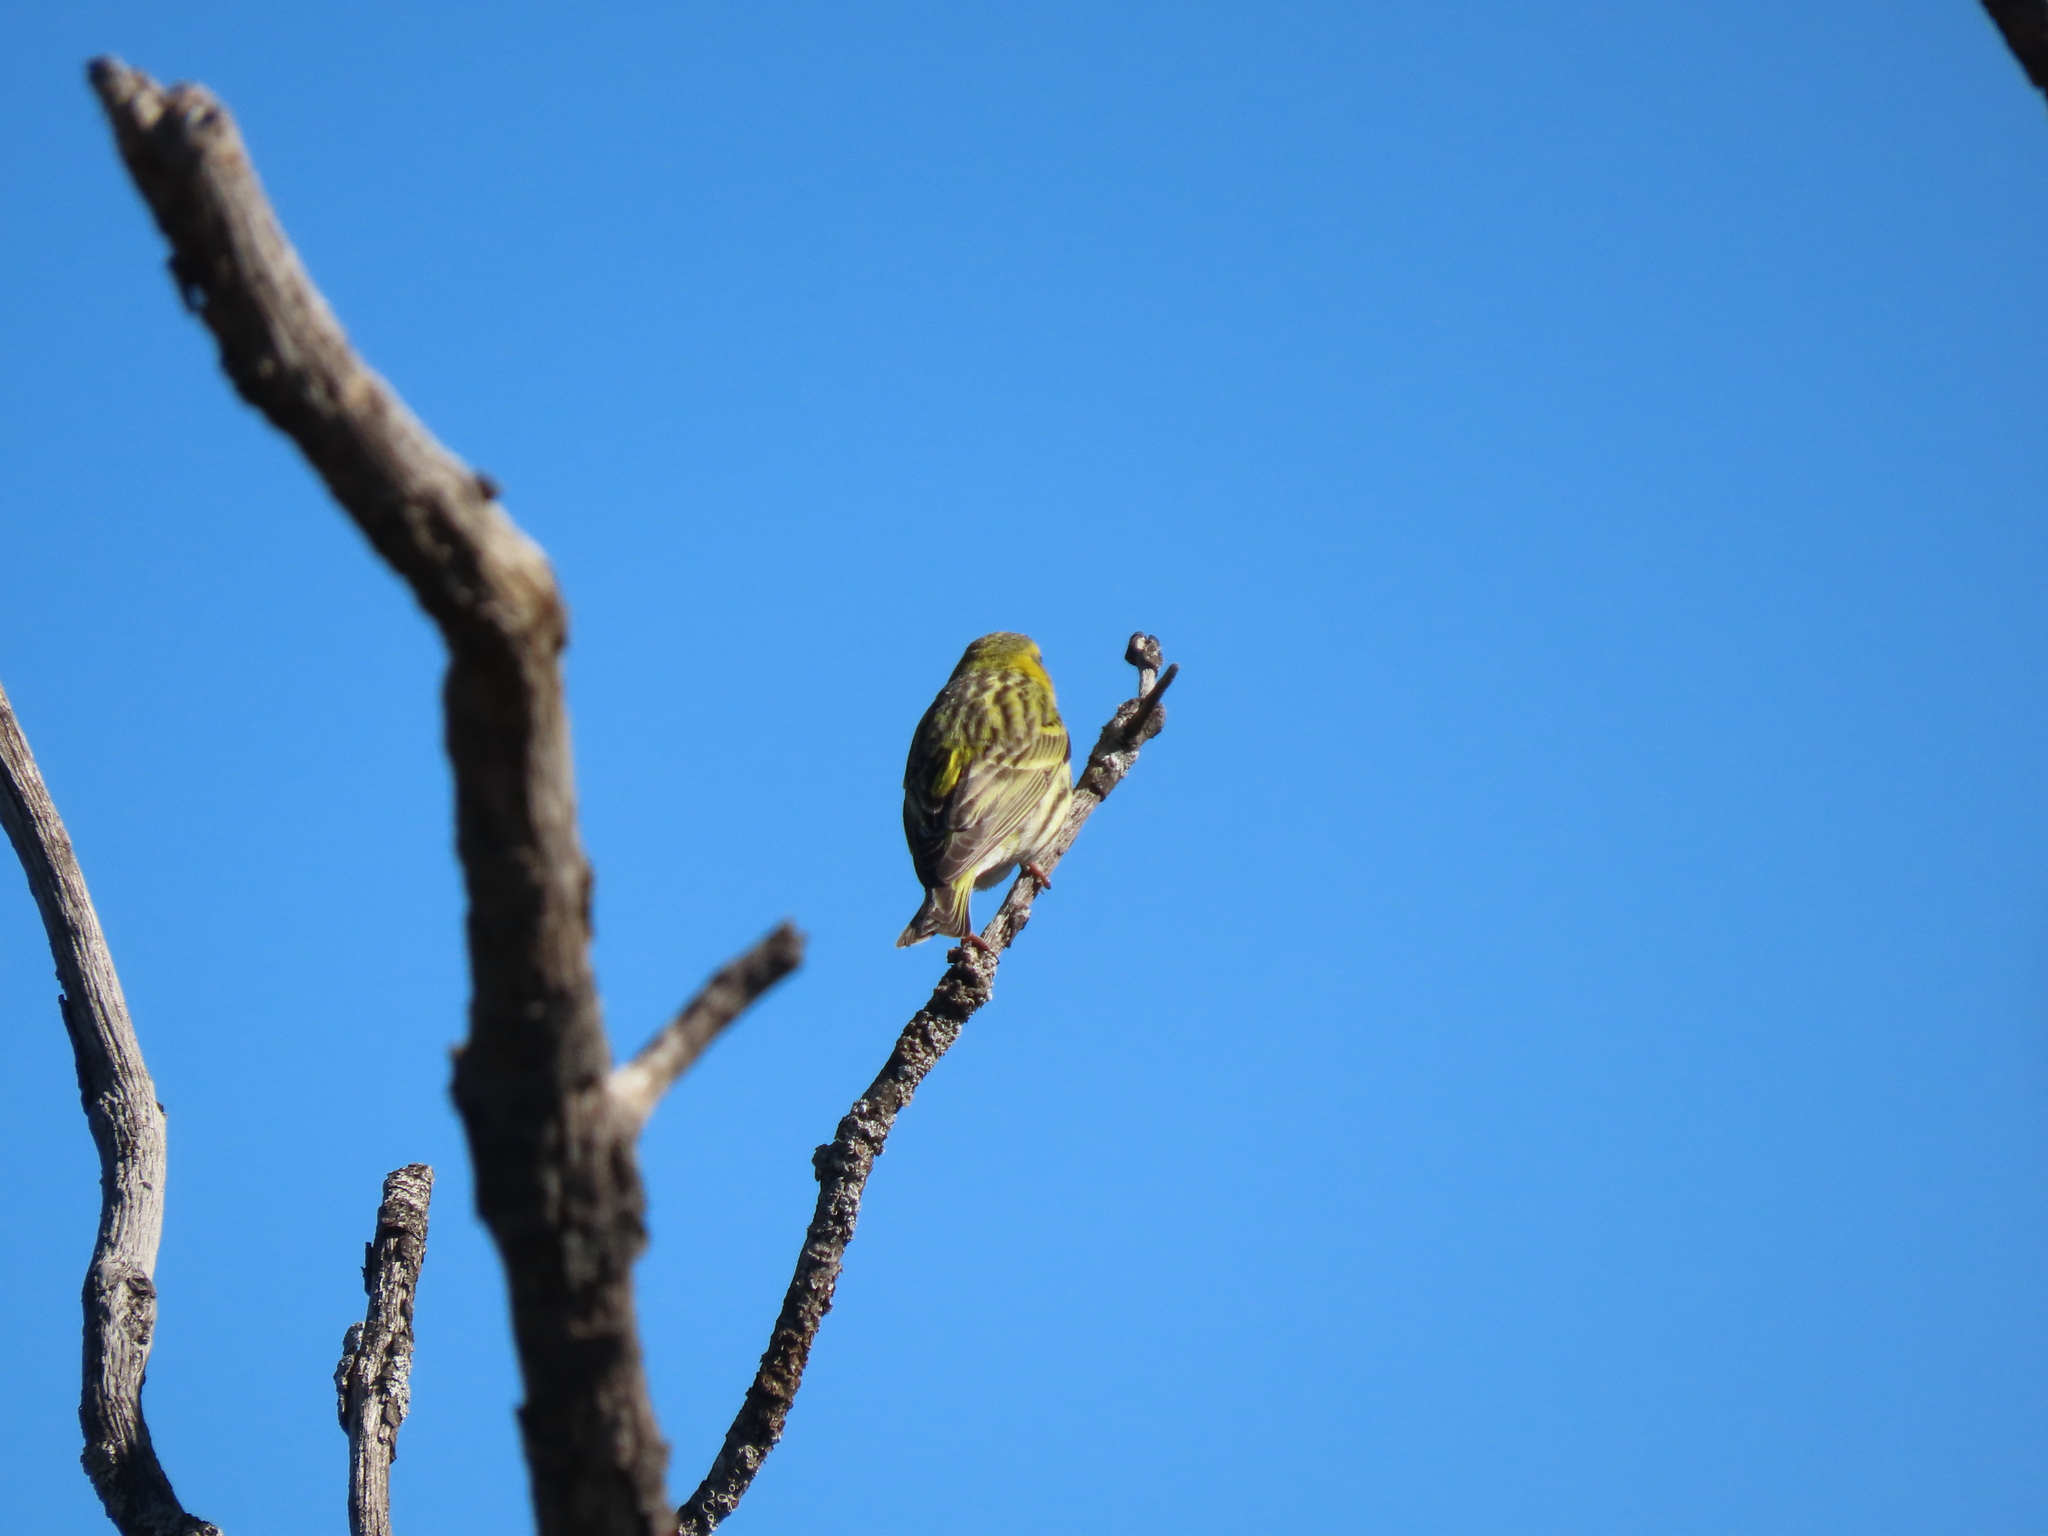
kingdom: Animalia
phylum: Chordata
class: Aves
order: Passeriformes
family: Fringillidae
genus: Serinus
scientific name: Serinus serinus
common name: European serin
